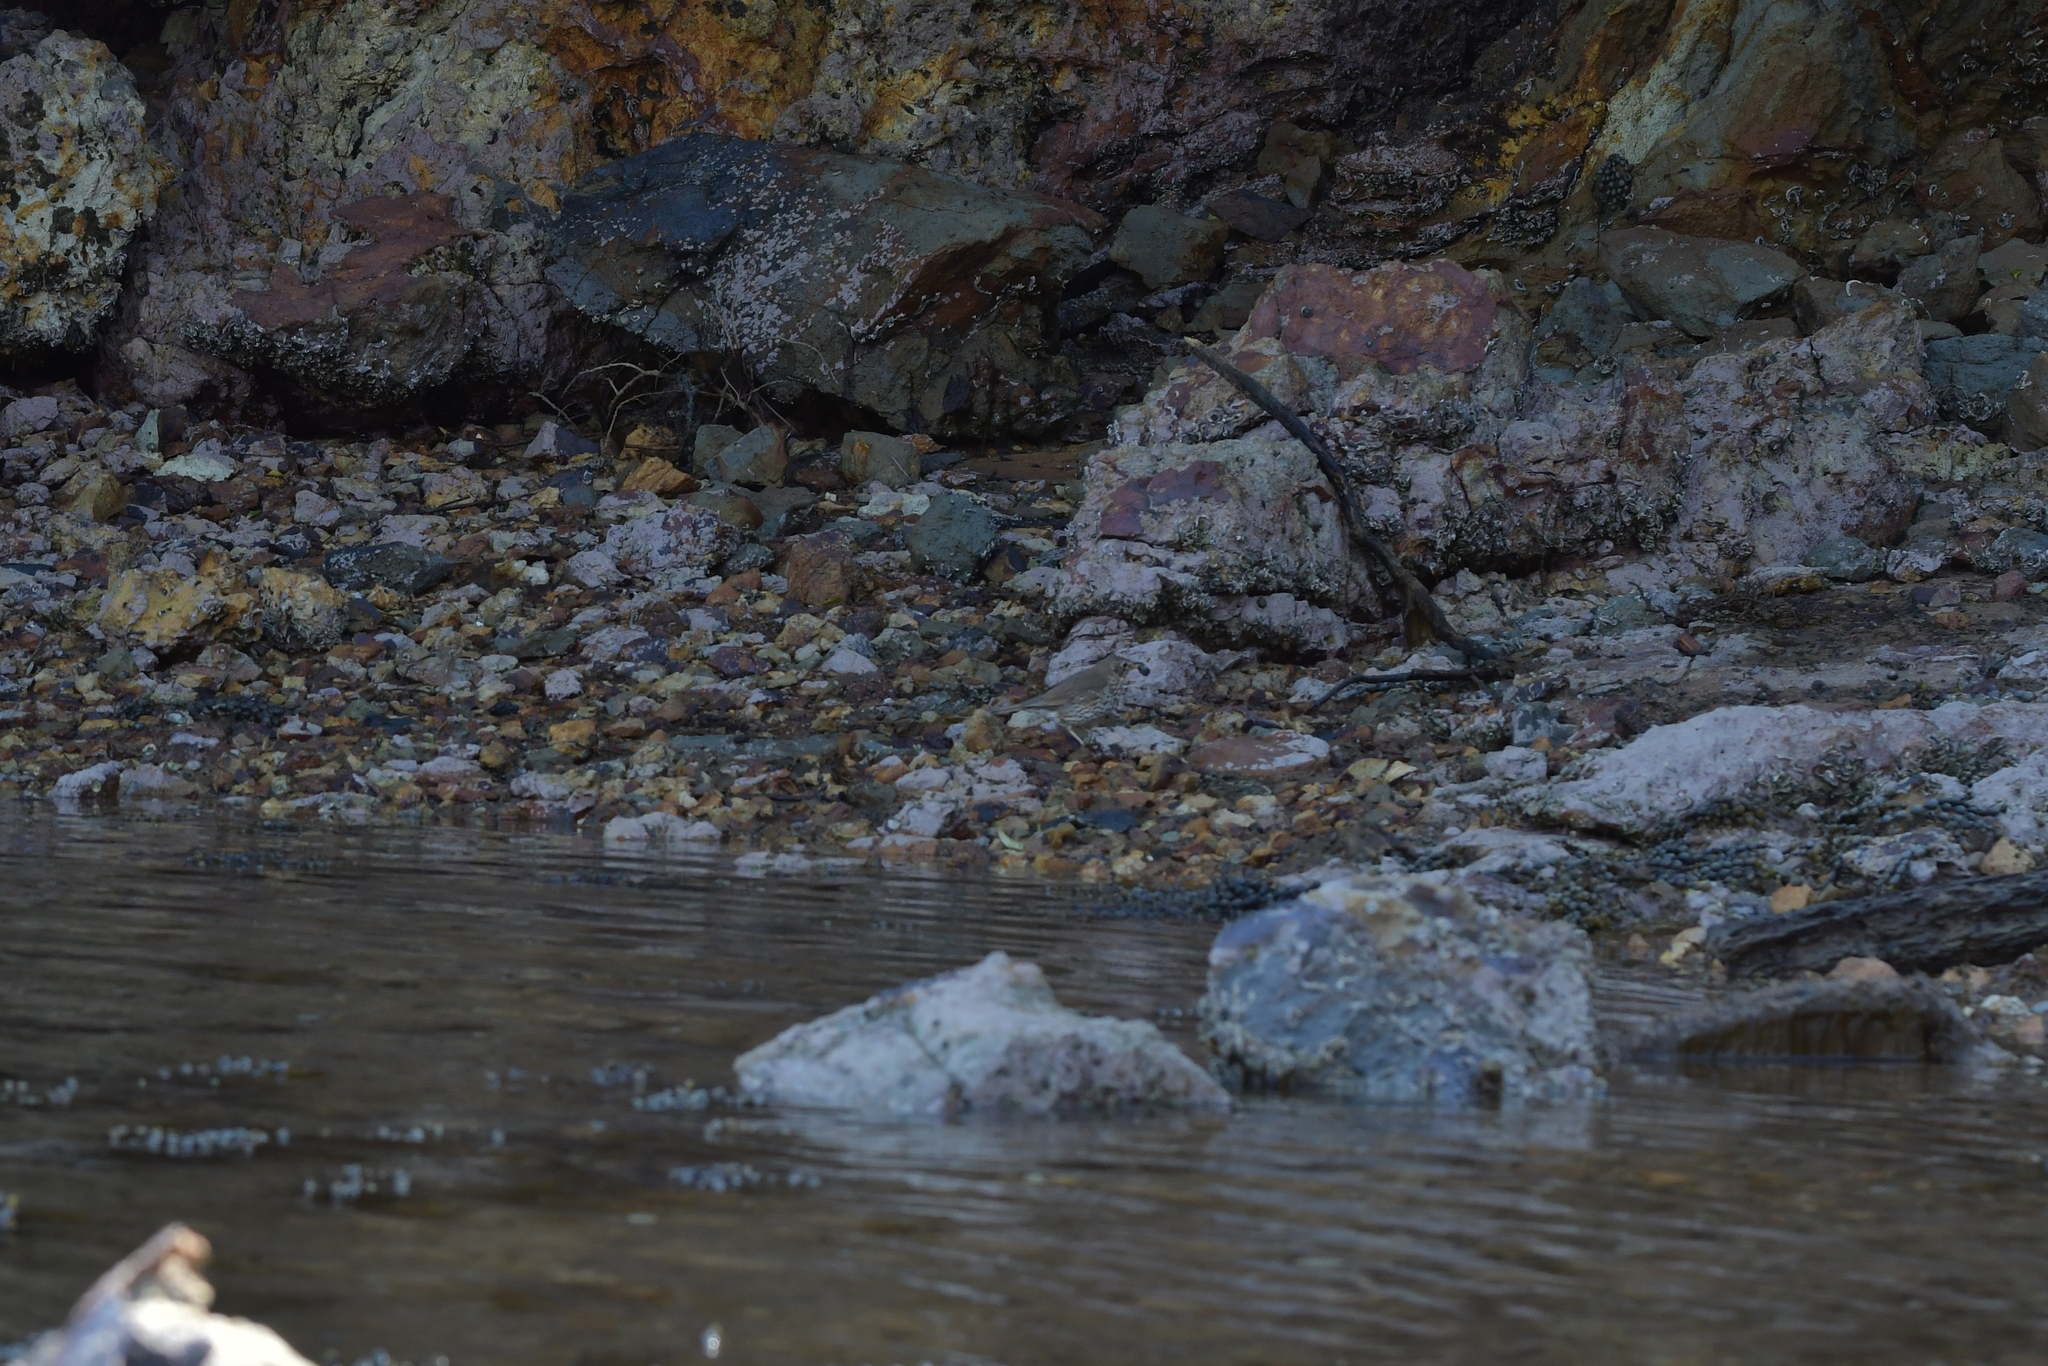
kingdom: Animalia
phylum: Chordata
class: Aves
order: Passeriformes
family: Turdidae
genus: Turdus
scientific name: Turdus philomelos
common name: Song thrush
